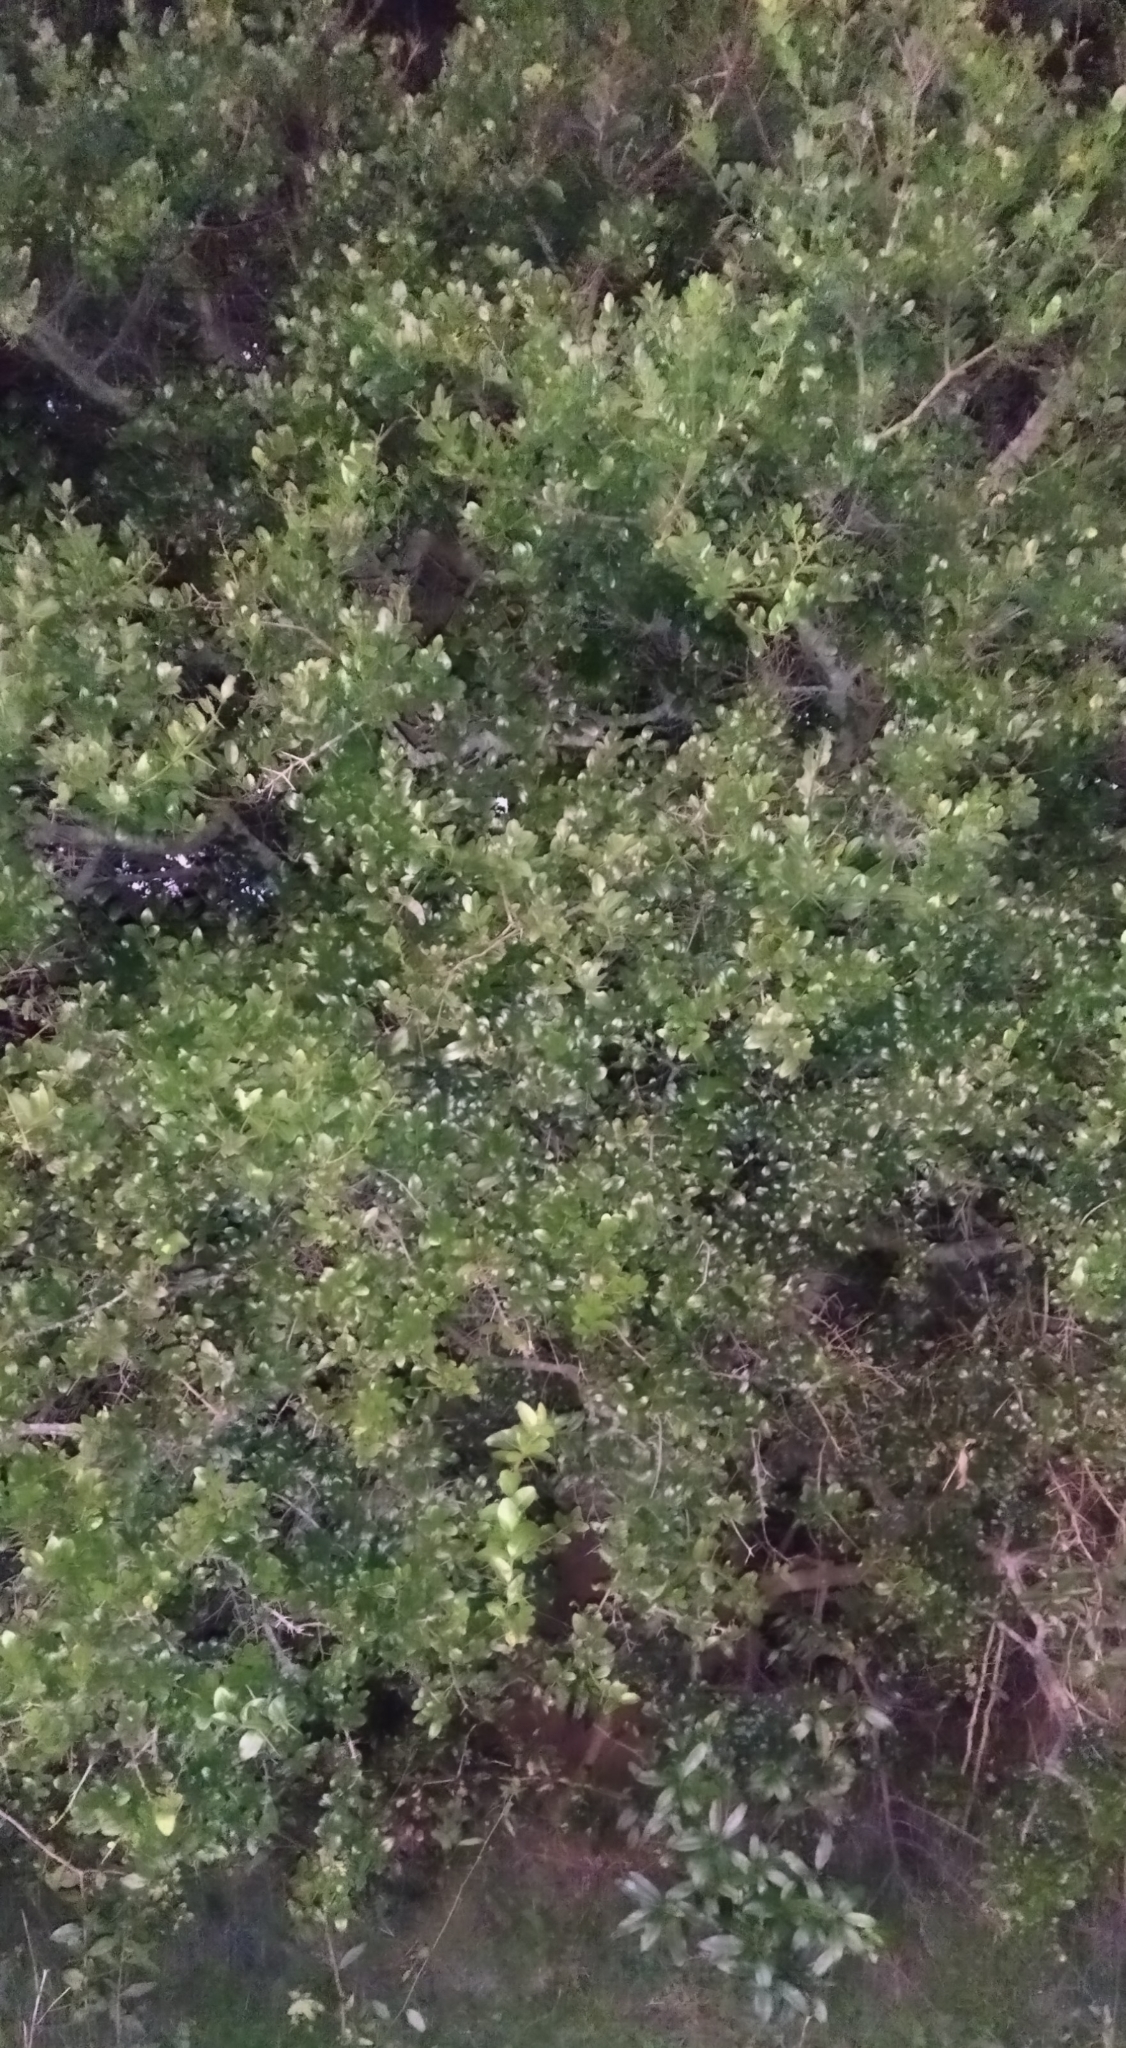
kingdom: Plantae
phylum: Tracheophyta
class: Magnoliopsida
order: Rosales
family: Rhamnaceae
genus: Scutia
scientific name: Scutia buxifolia
